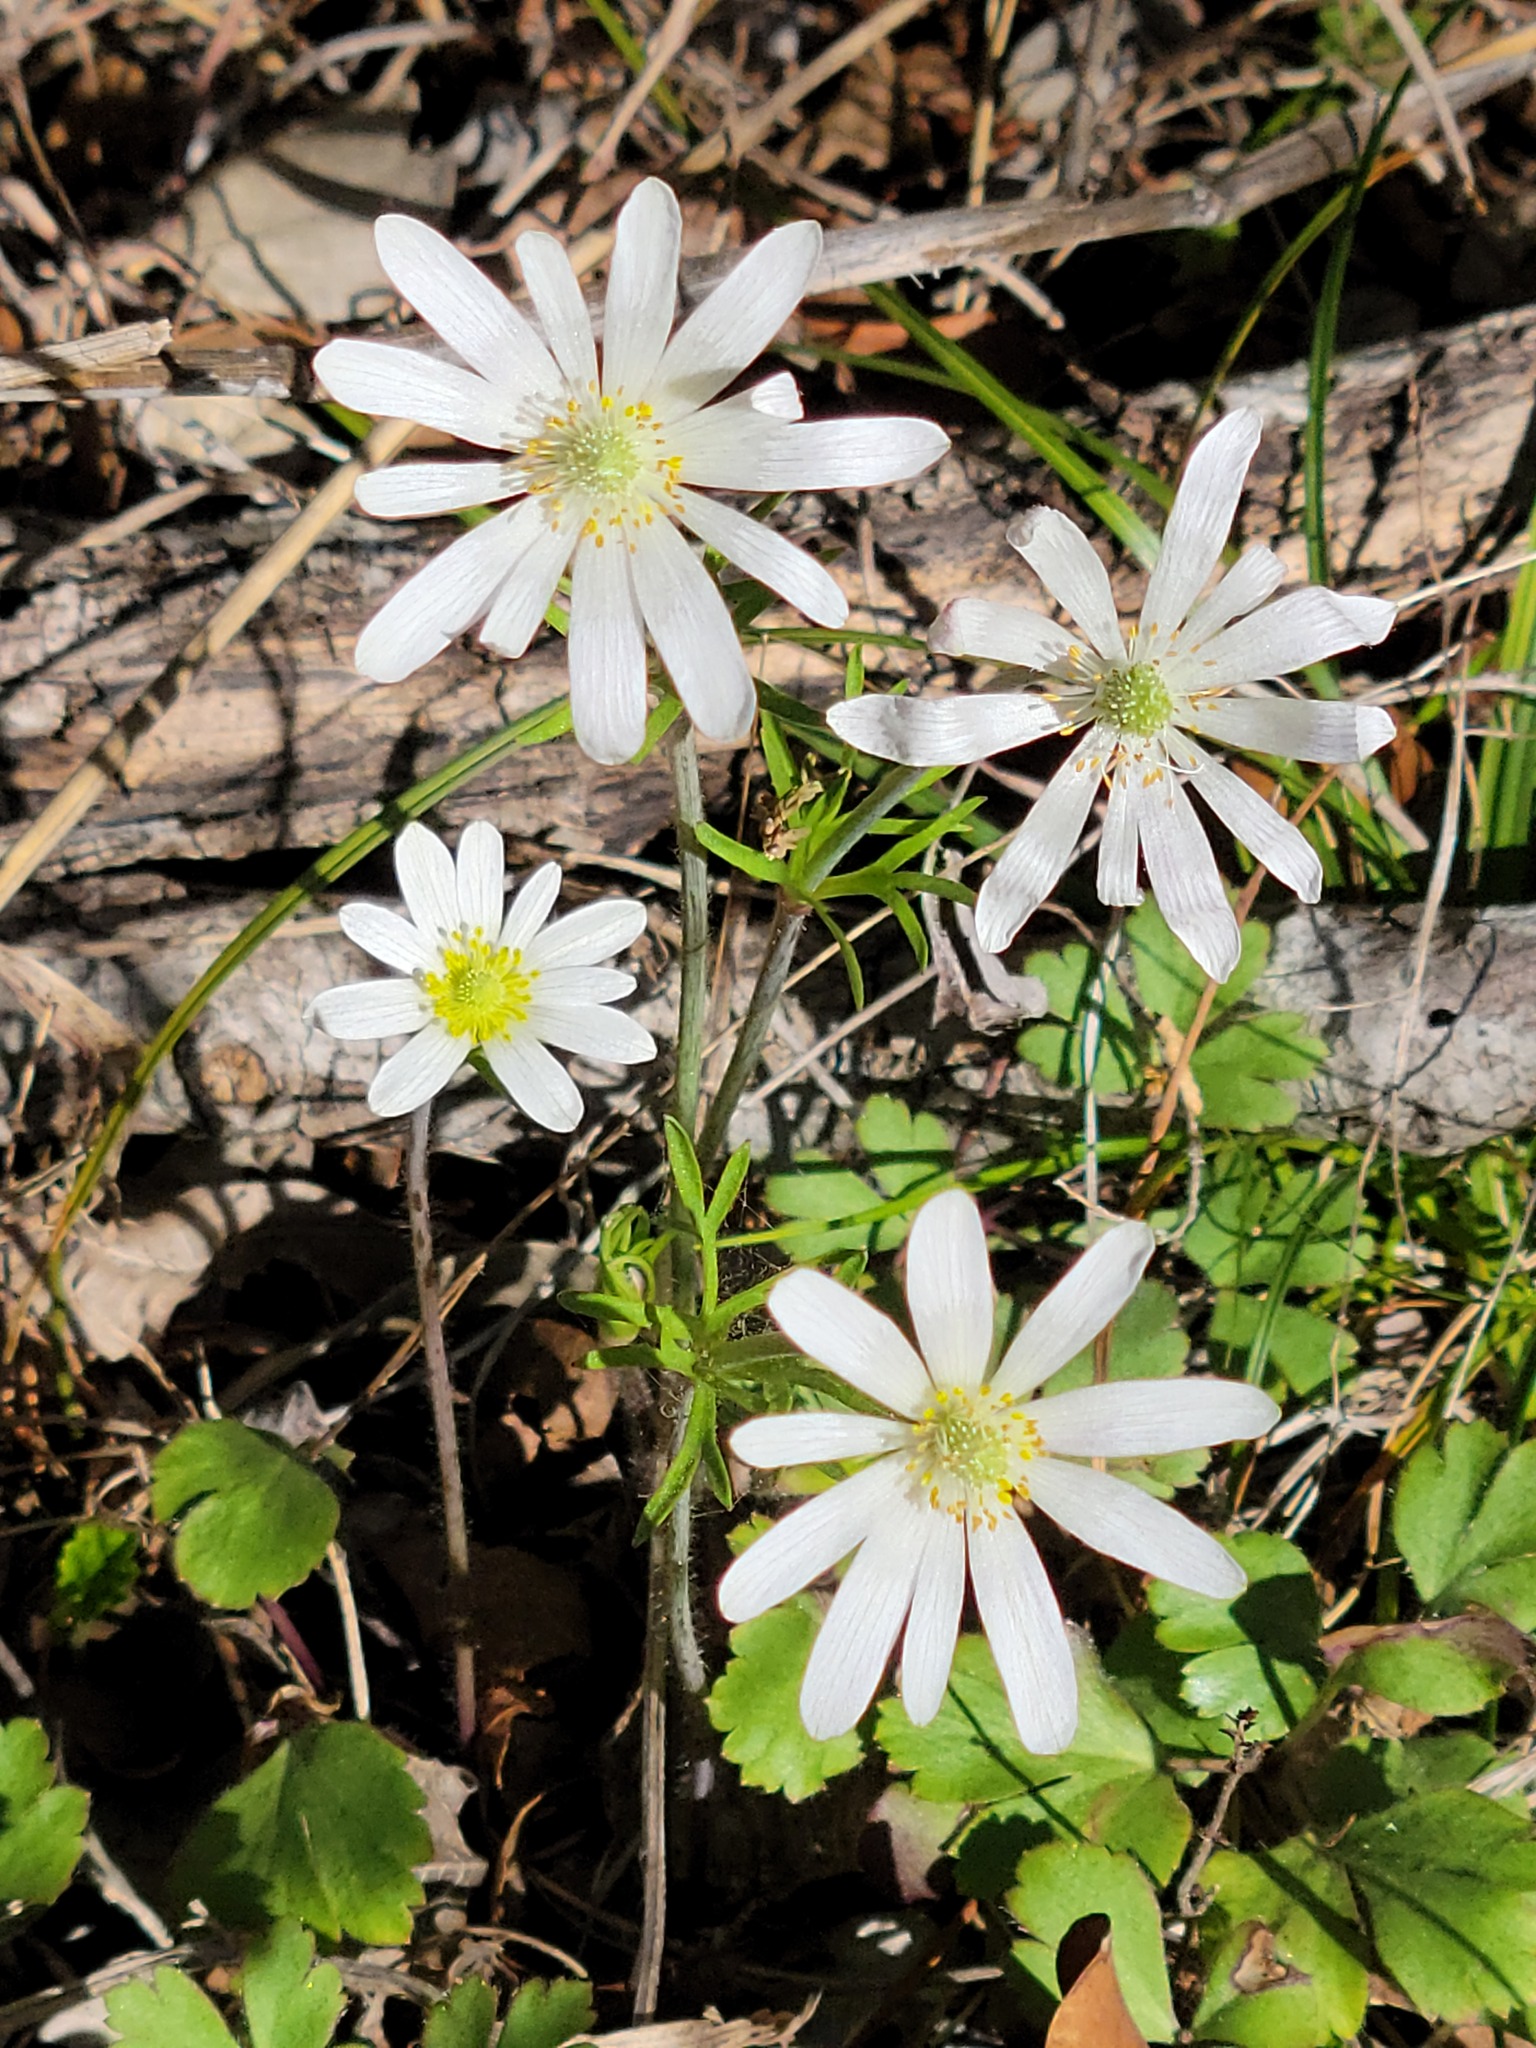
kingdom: Plantae
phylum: Tracheophyta
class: Magnoliopsida
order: Ranunculales
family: Ranunculaceae
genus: Anemone
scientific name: Anemone berlandieri
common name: Ten-petal anemone
